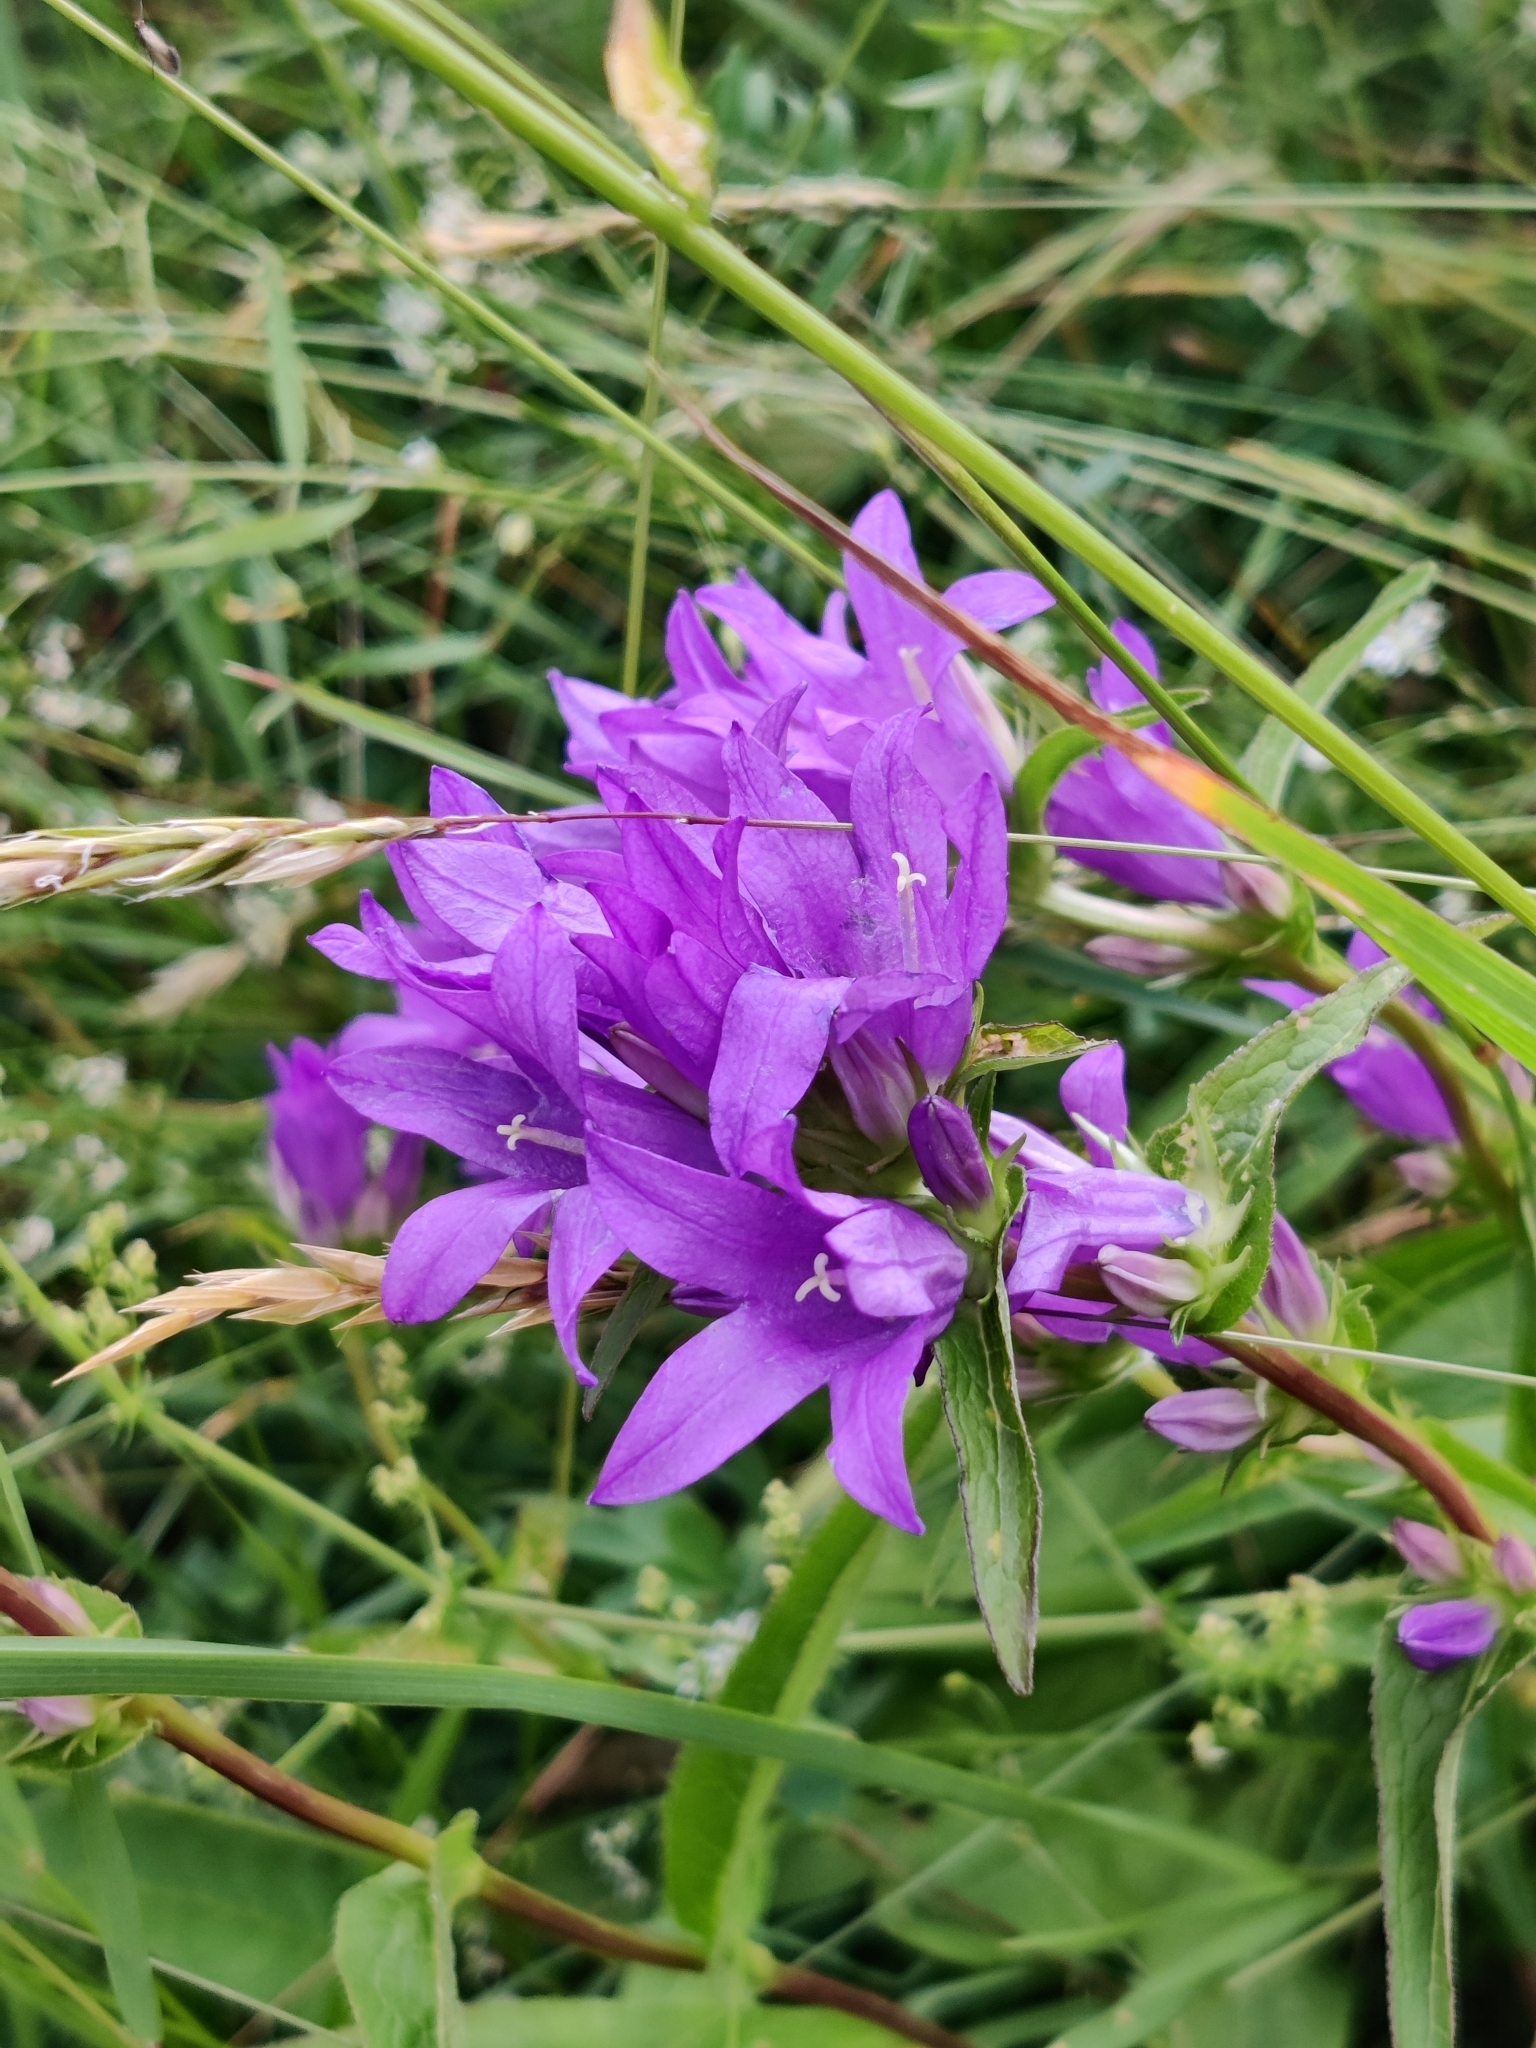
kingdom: Plantae
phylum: Tracheophyta
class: Magnoliopsida
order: Asterales
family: Campanulaceae
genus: Campanula
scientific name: Campanula glomerata
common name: Clustered bellflower
